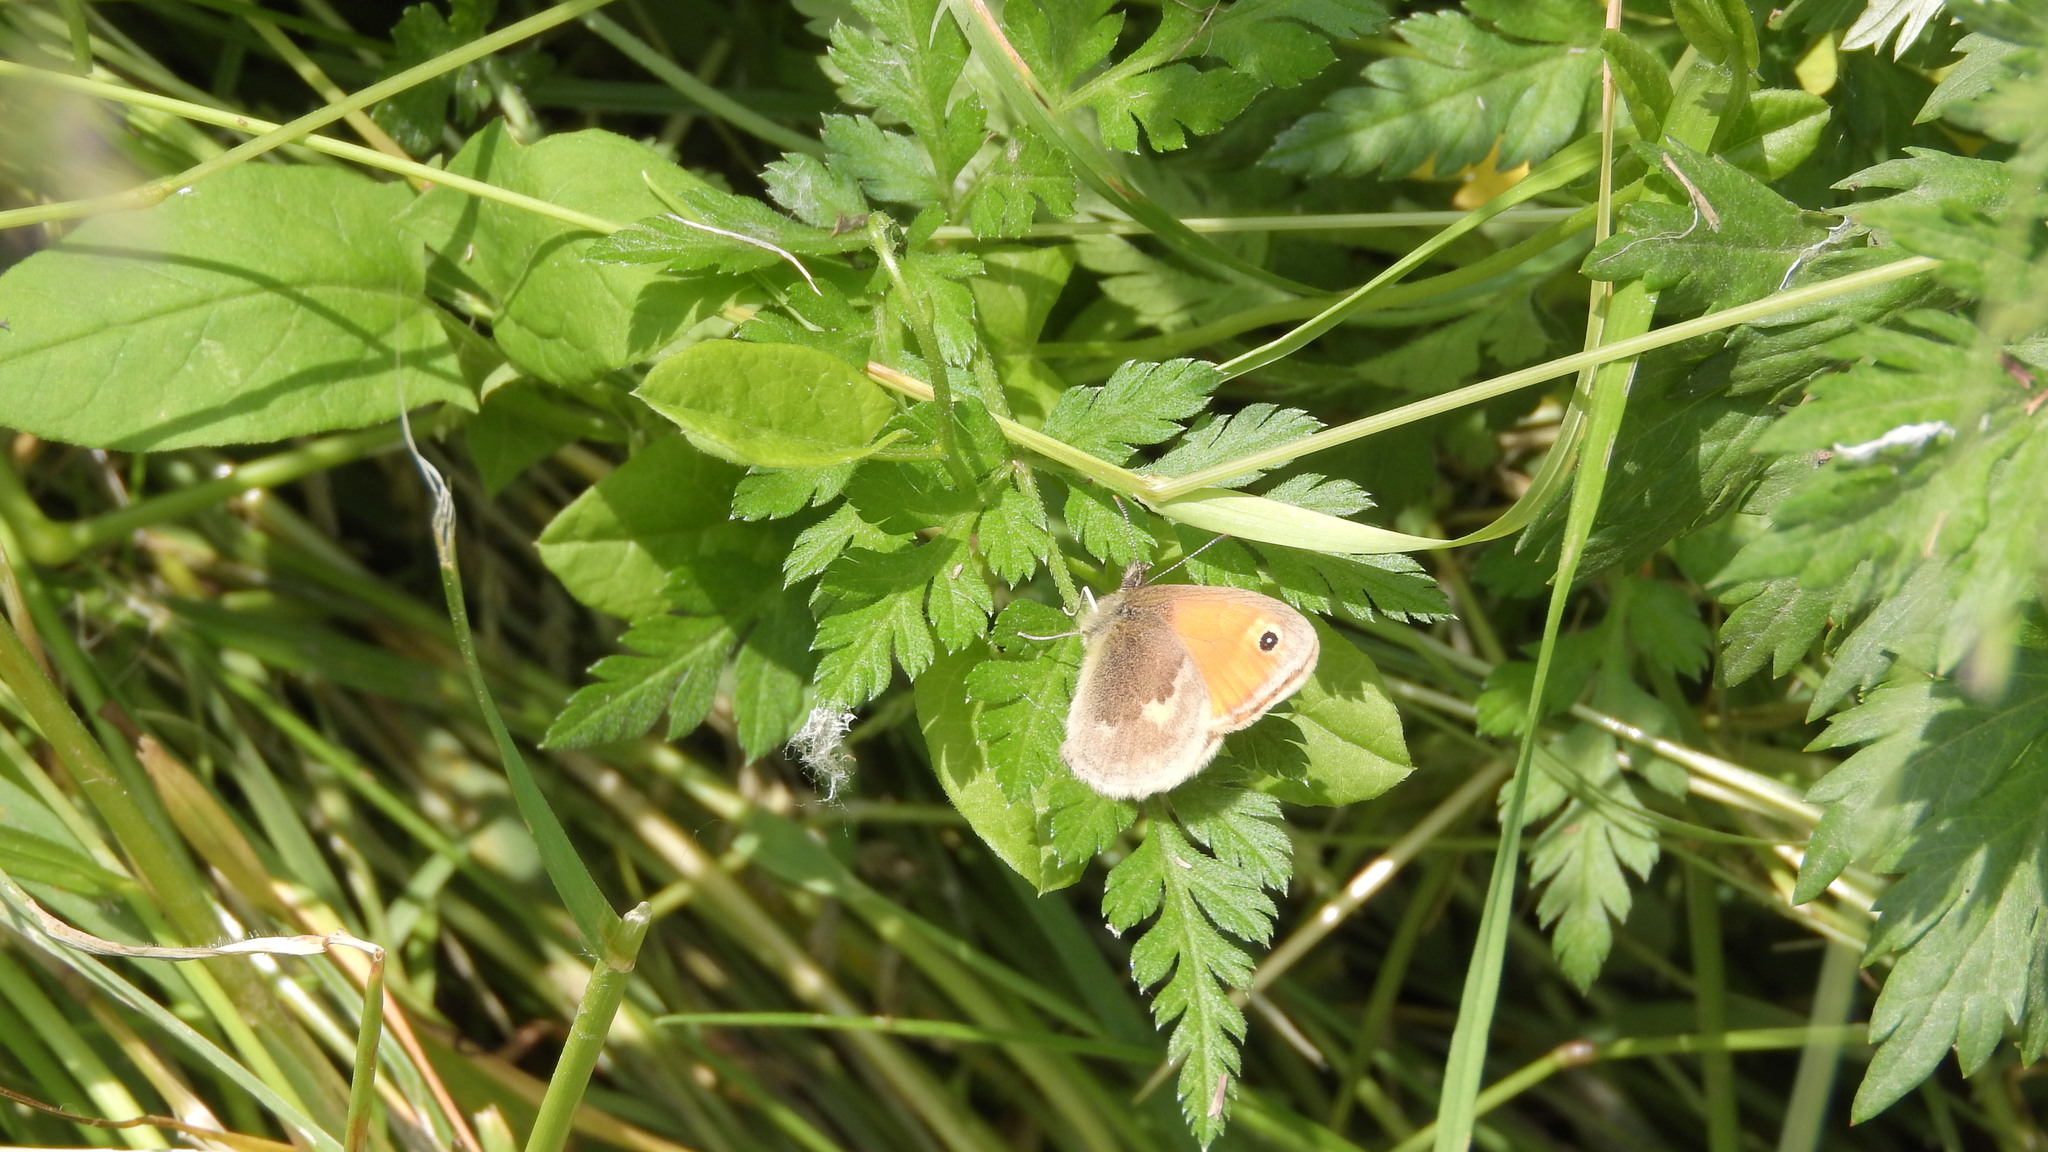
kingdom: Animalia
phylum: Arthropoda
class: Insecta
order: Lepidoptera
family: Nymphalidae
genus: Coenonympha
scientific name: Coenonympha pamphilus
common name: Small heath
